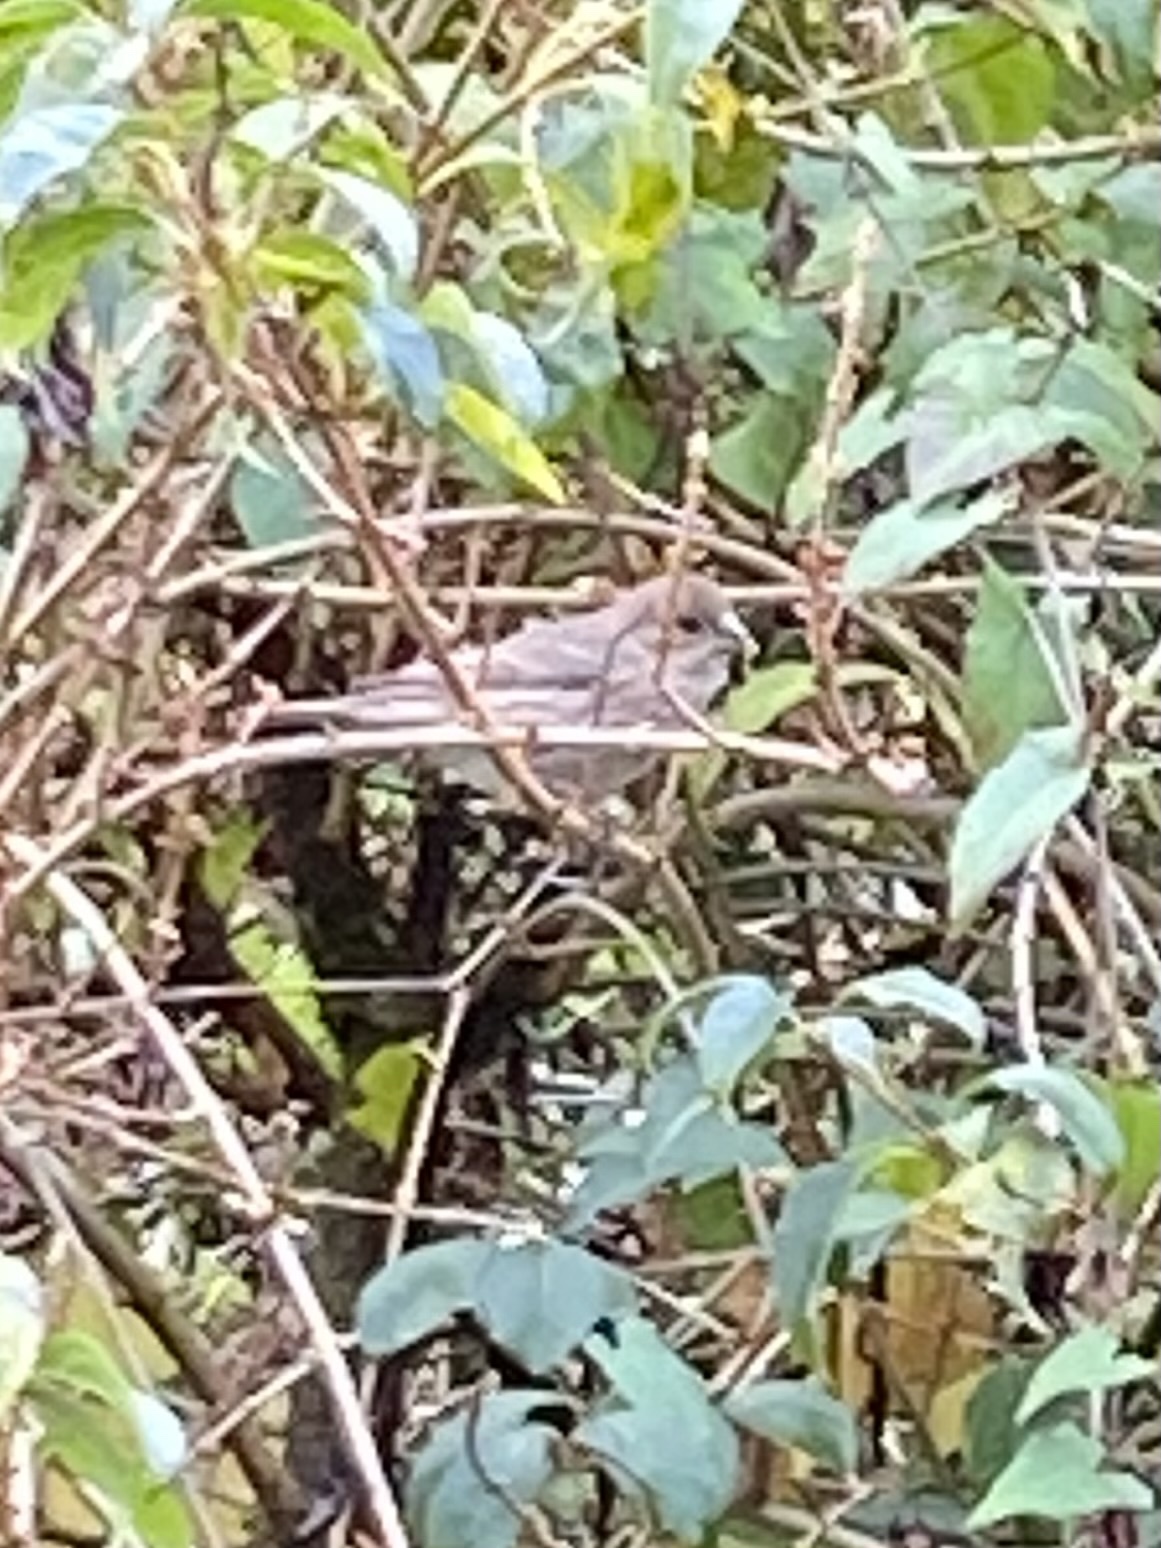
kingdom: Animalia
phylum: Chordata
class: Aves
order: Passeriformes
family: Fringillidae
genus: Haemorhous
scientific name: Haemorhous mexicanus
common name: House finch
